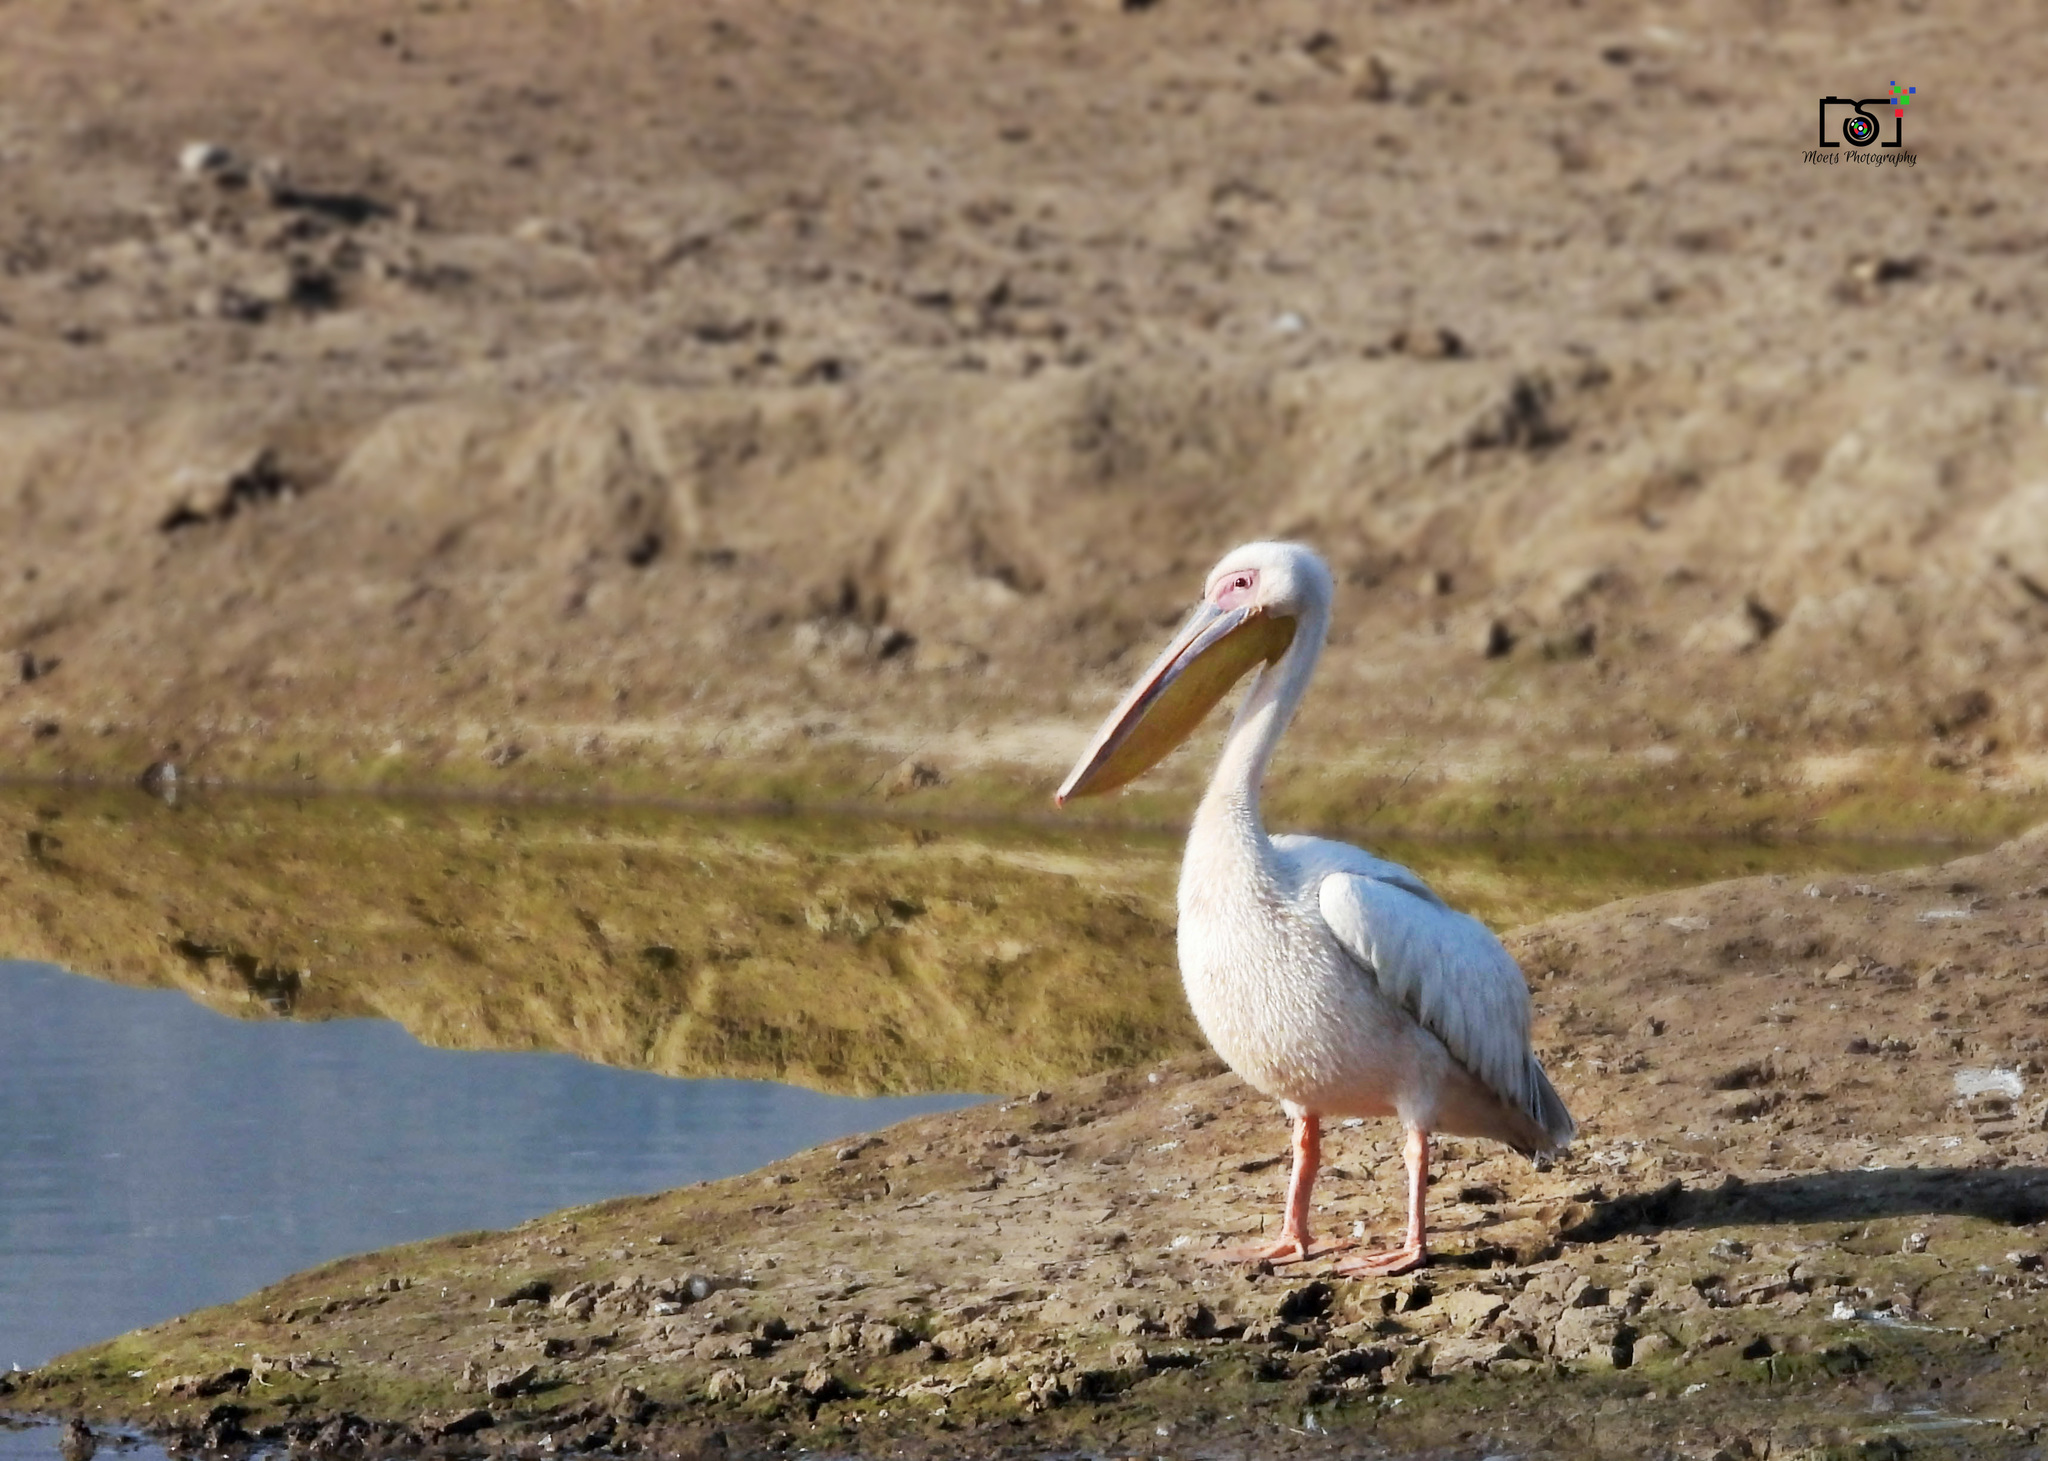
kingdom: Animalia
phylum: Chordata
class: Aves
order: Pelecaniformes
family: Pelecanidae
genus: Pelecanus
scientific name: Pelecanus onocrotalus
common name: Great white pelican
